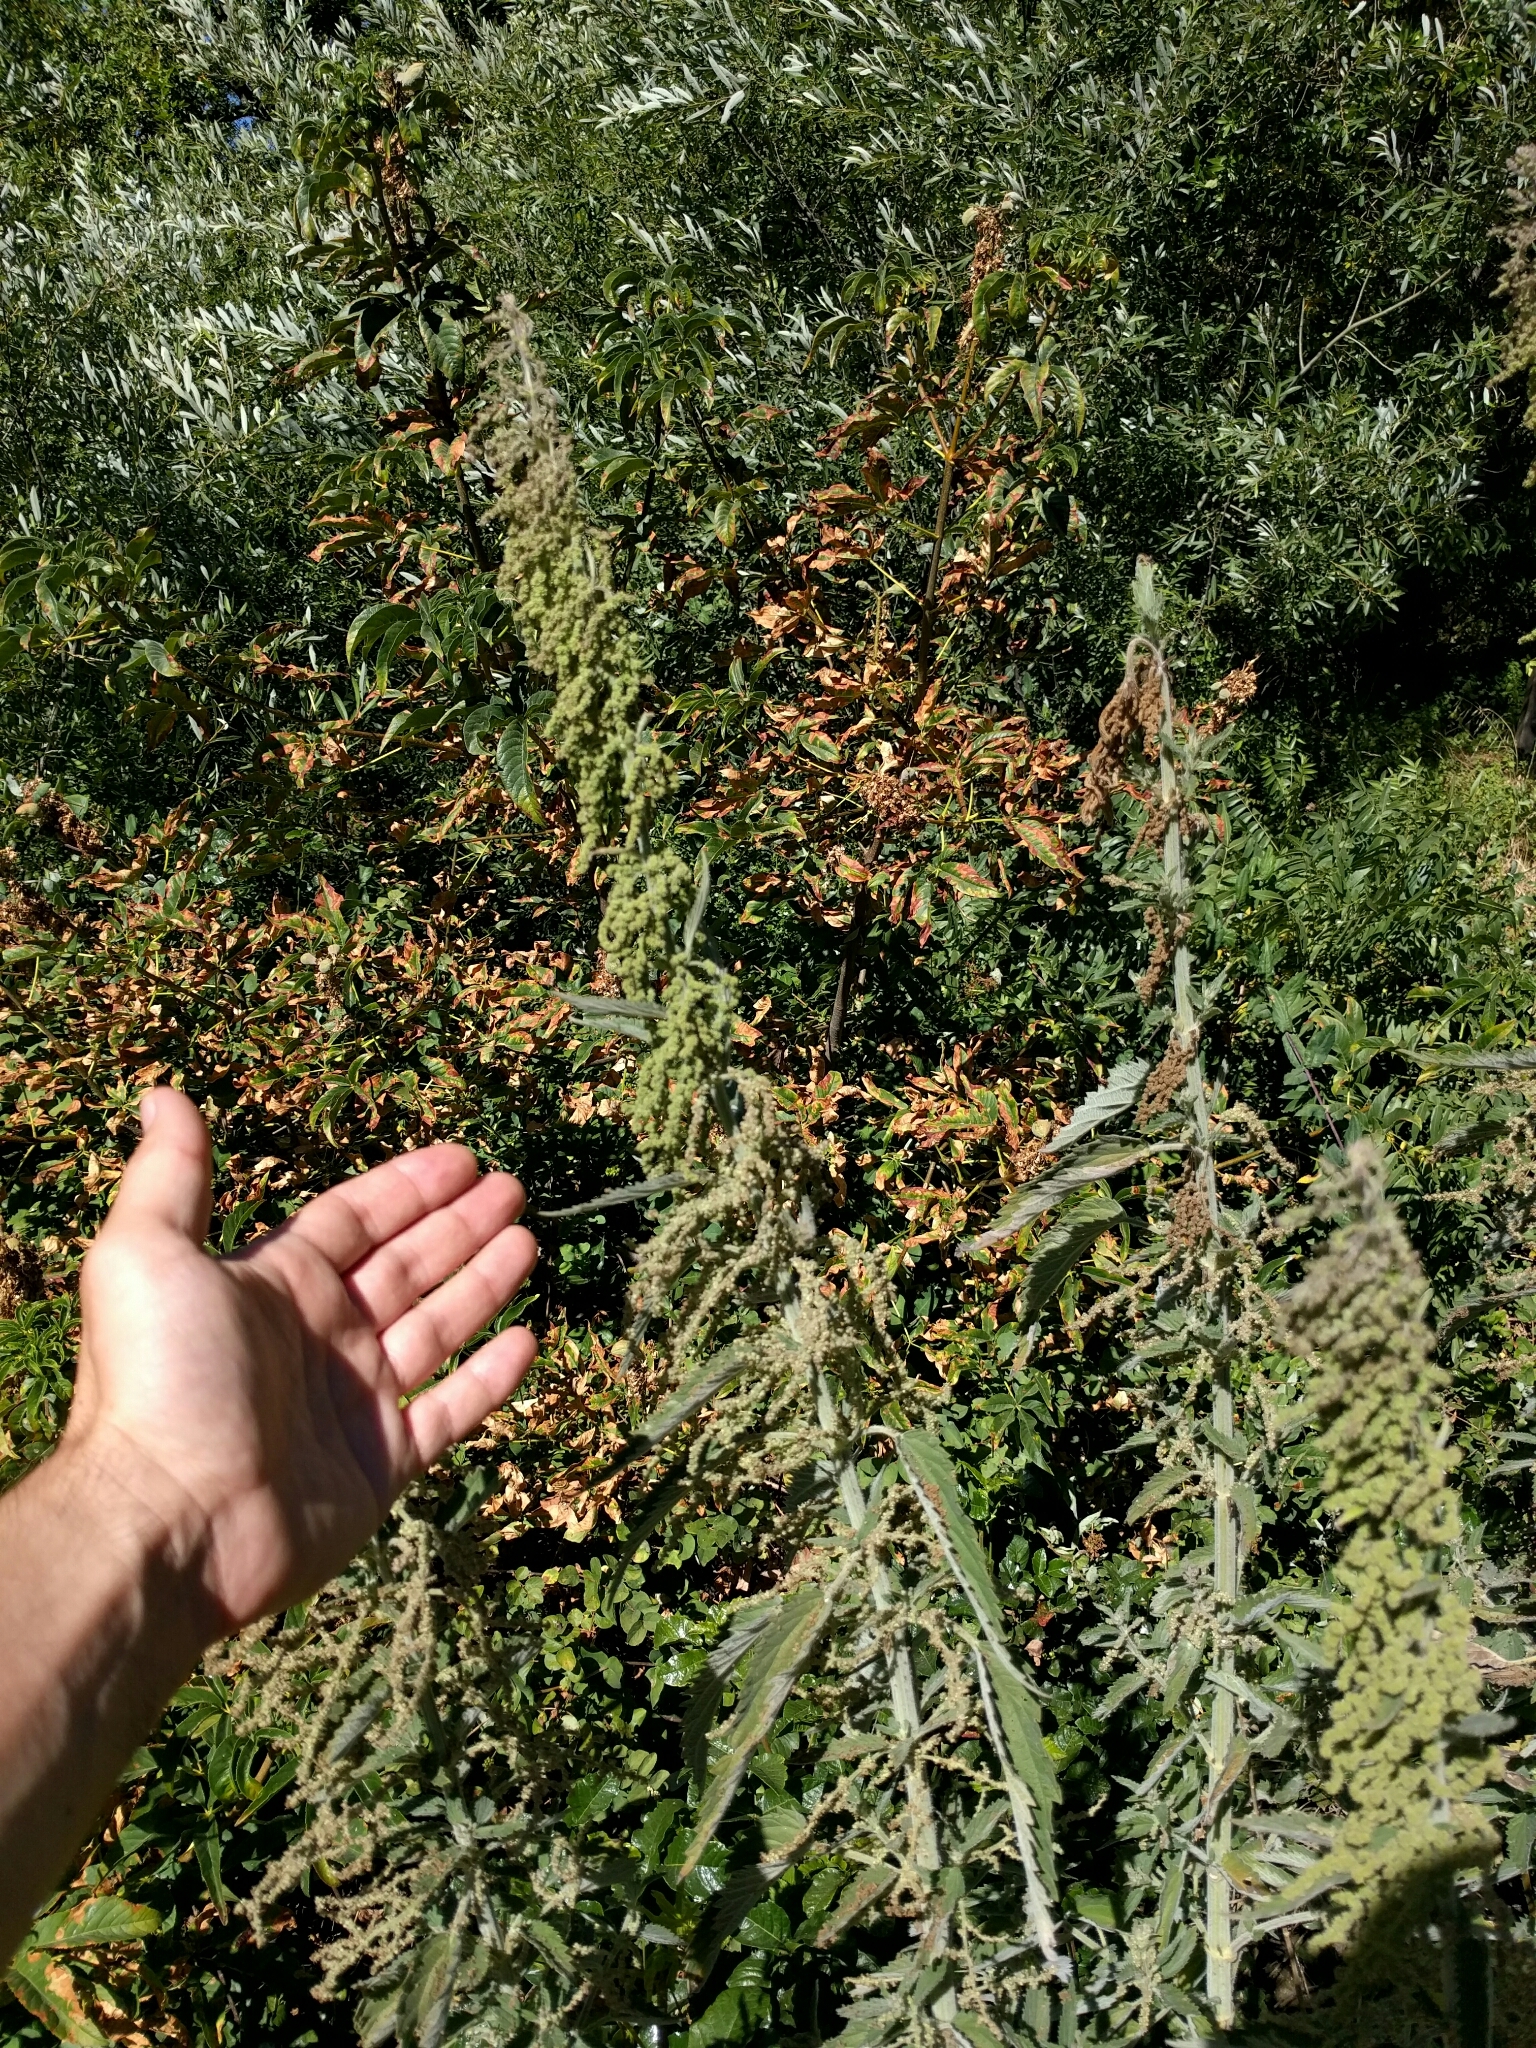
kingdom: Plantae
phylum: Tracheophyta
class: Magnoliopsida
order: Rosales
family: Urticaceae
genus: Urtica
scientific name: Urtica dioica
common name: Common nettle
